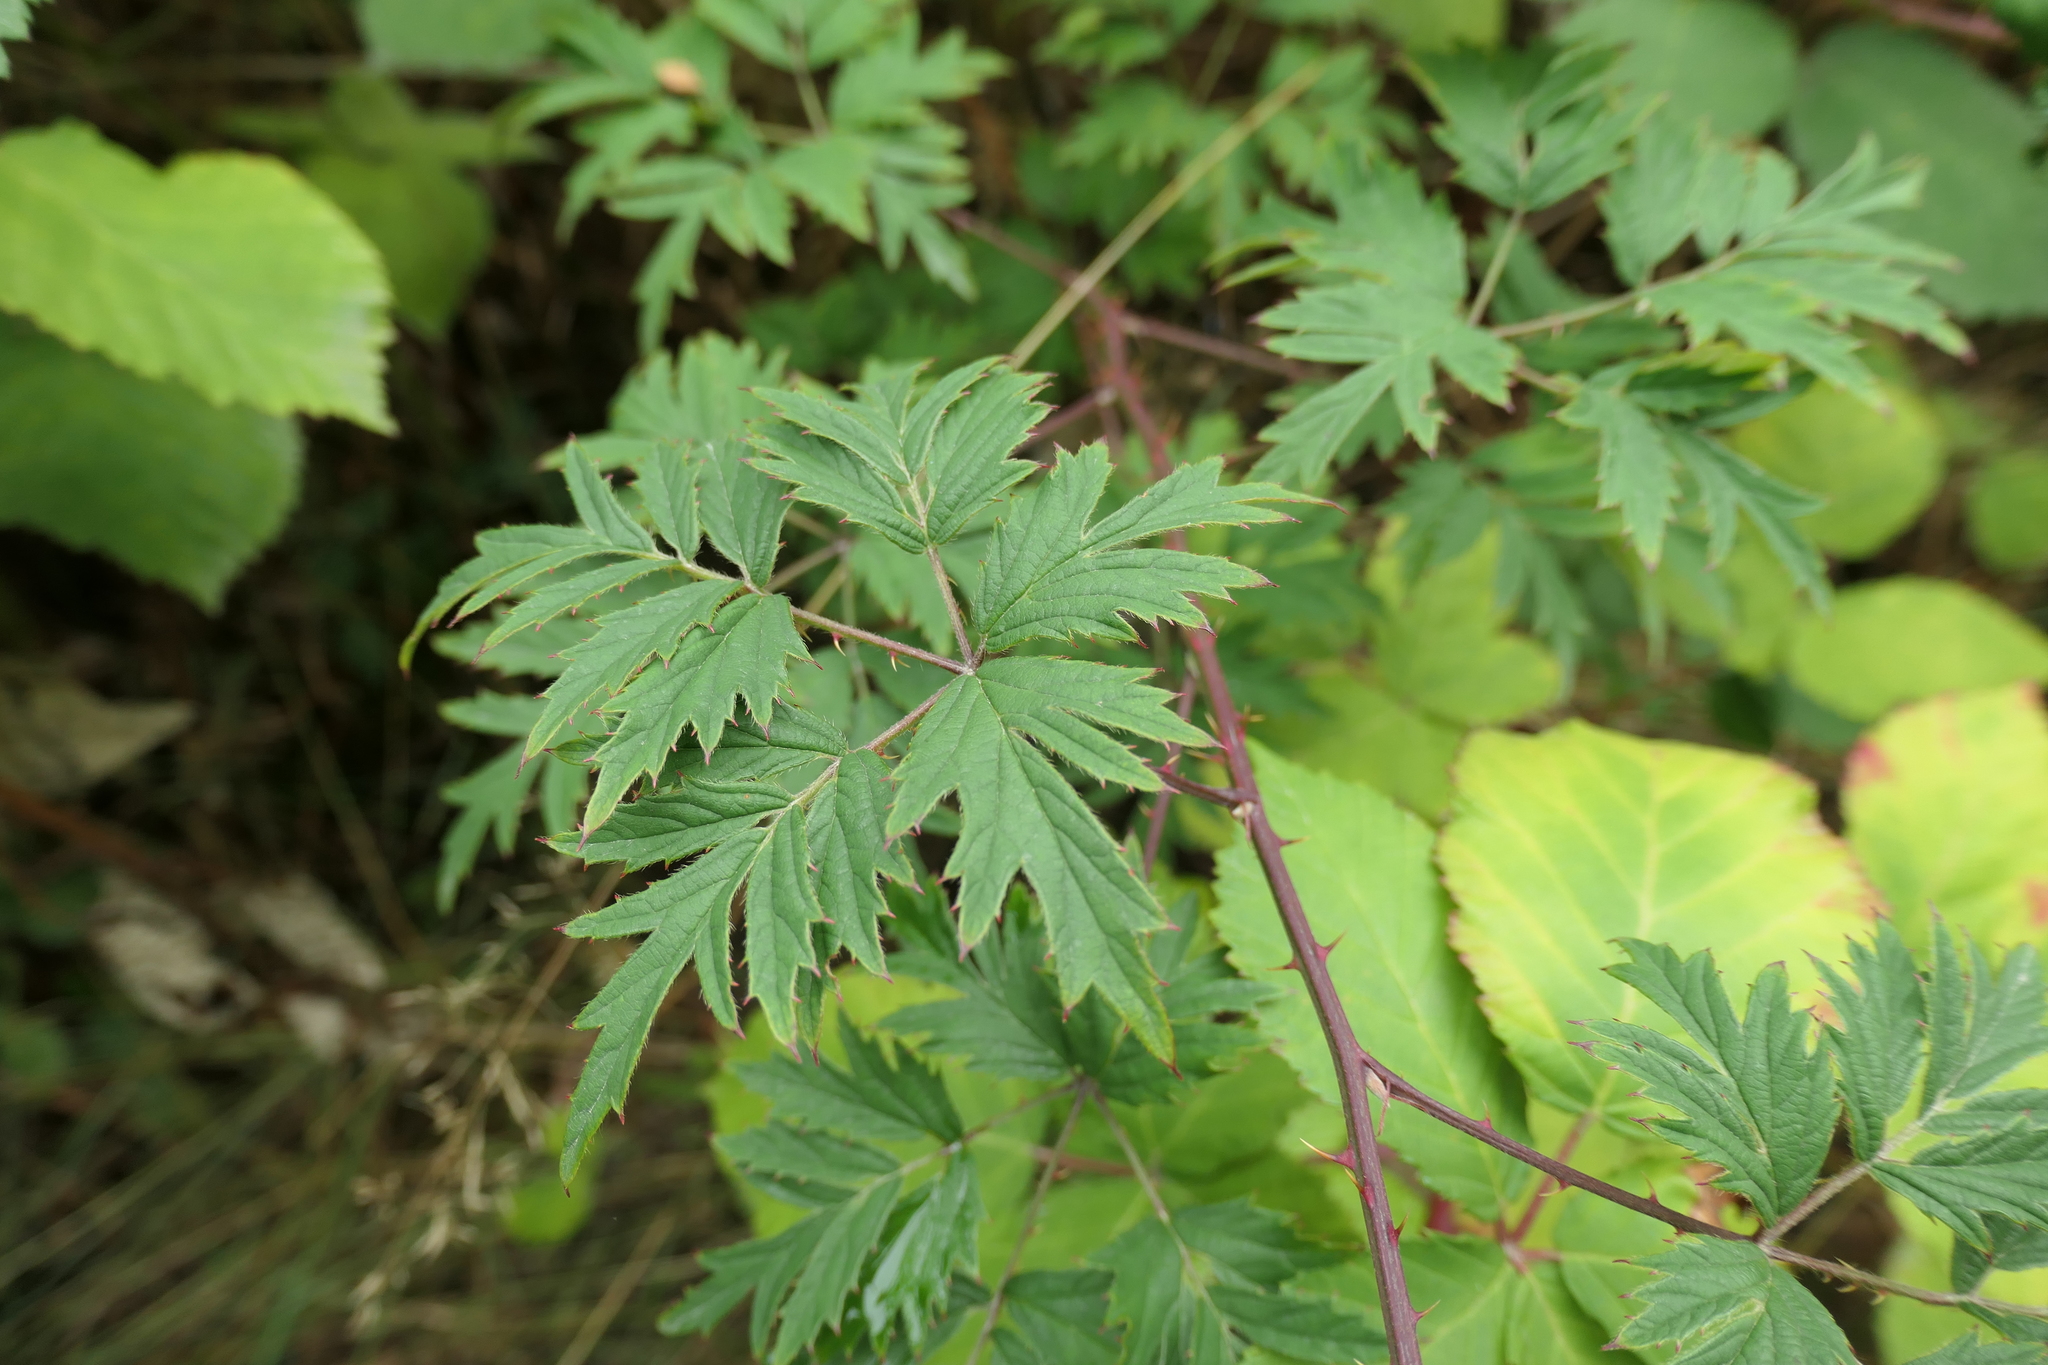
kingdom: Plantae
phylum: Tracheophyta
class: Magnoliopsida
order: Rosales
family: Rosaceae
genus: Rubus
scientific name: Rubus laciniatus
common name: Evergreen blackberry
